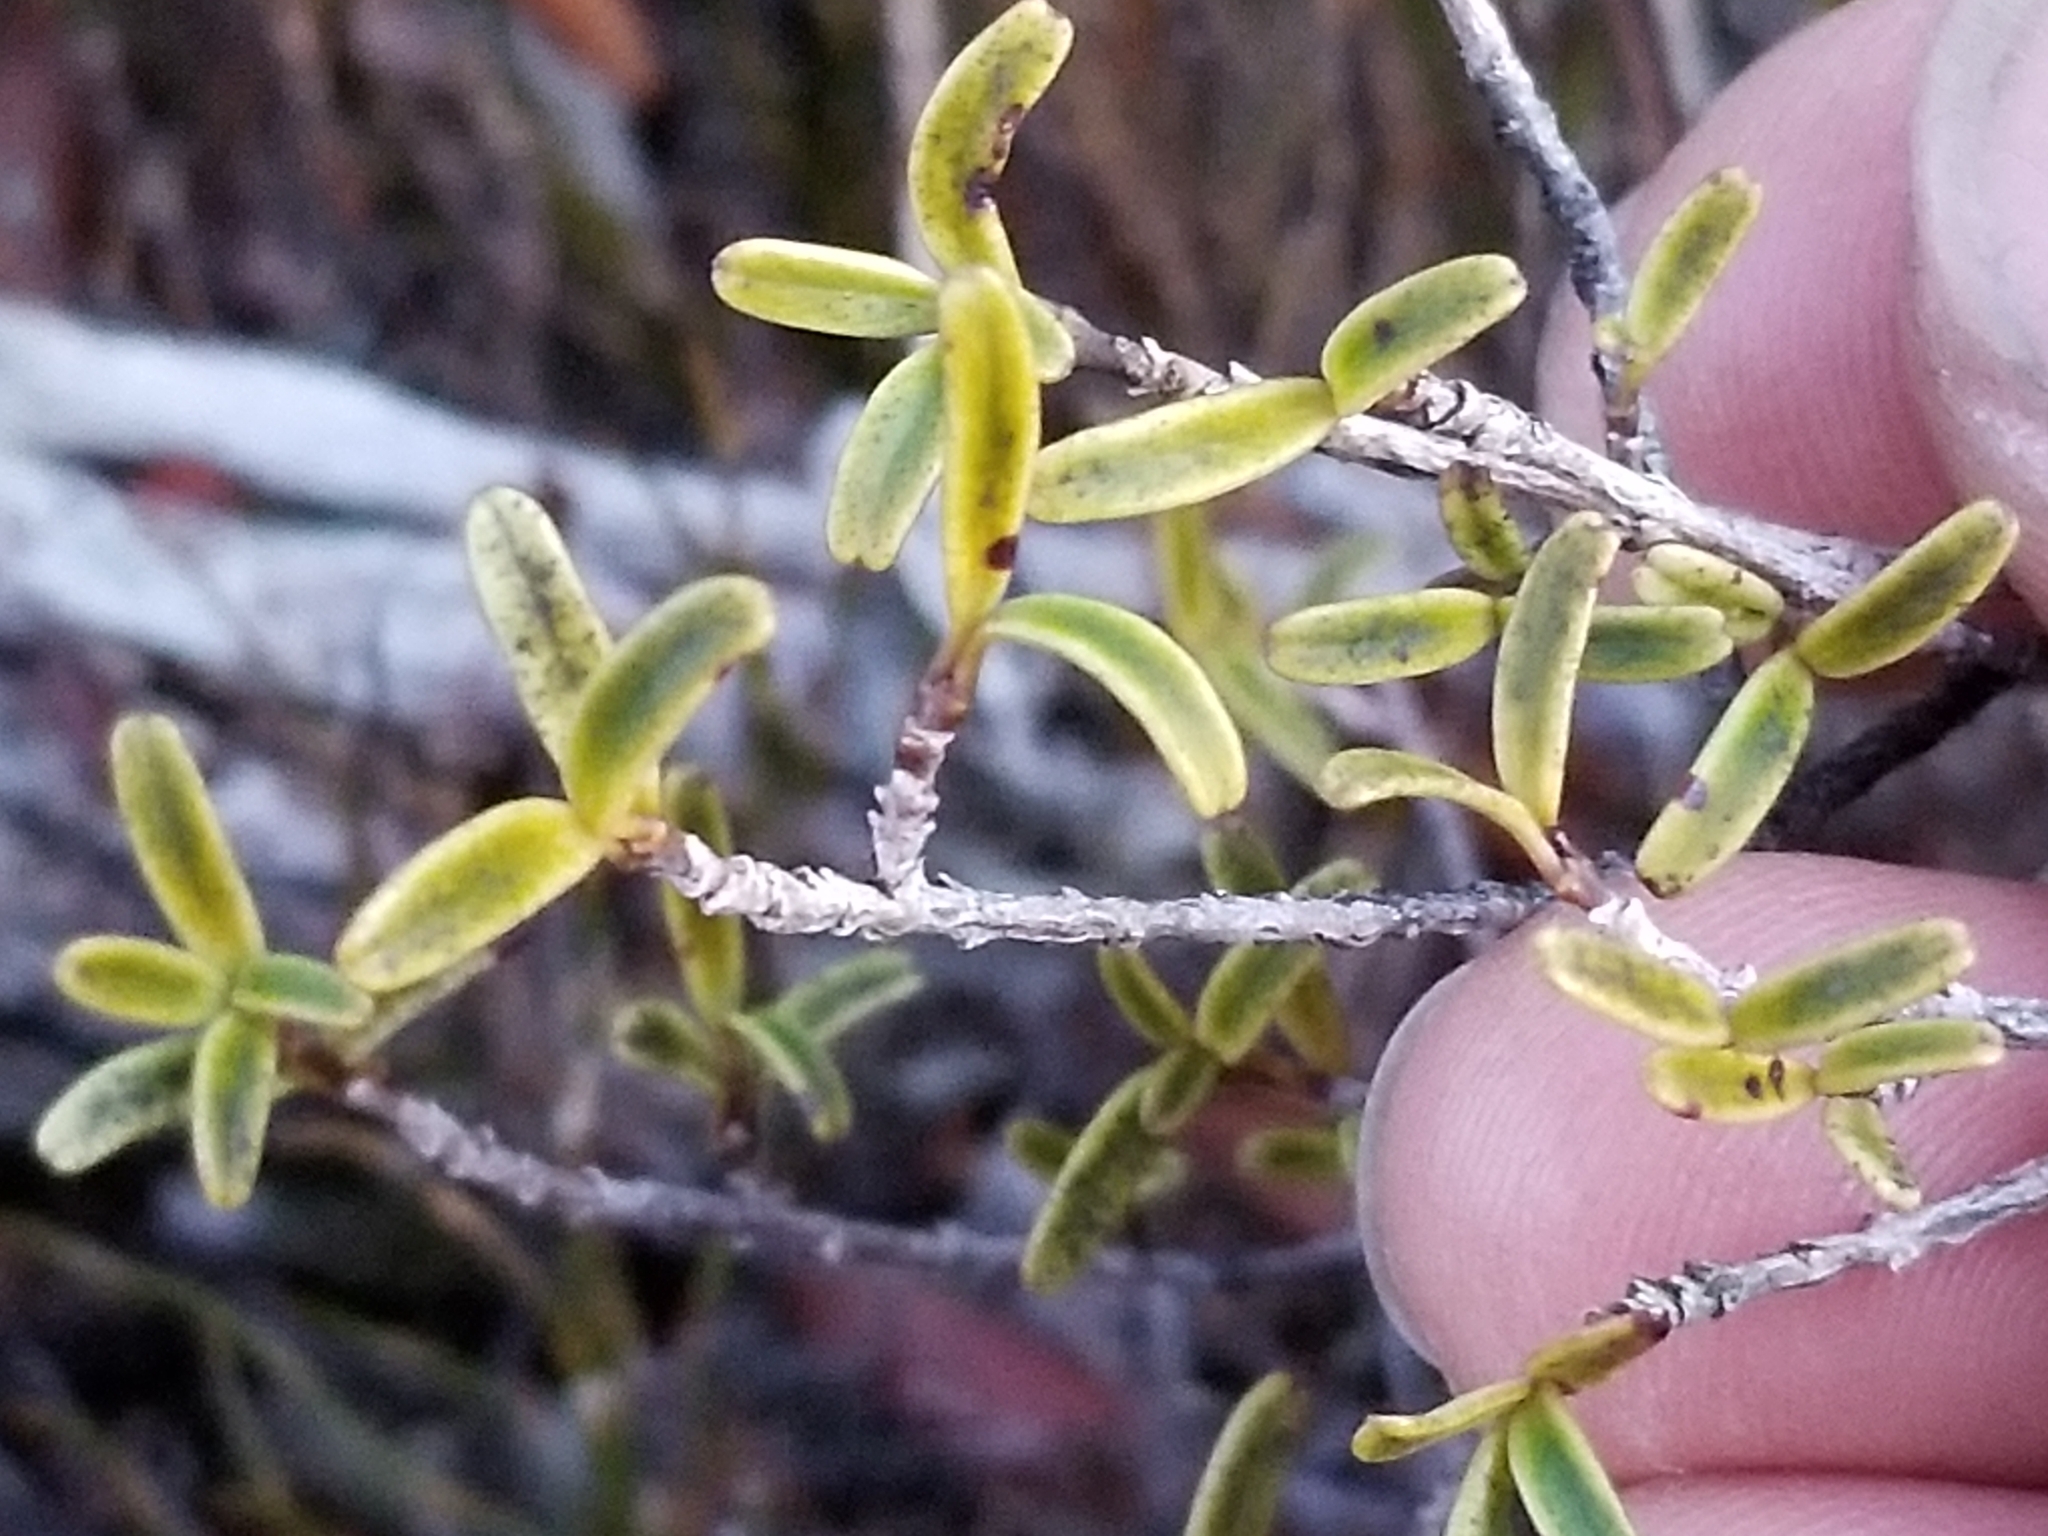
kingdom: Plantae
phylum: Tracheophyta
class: Magnoliopsida
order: Gentianales
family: Rubiaceae
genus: Coprosma
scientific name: Coprosma crenulata
